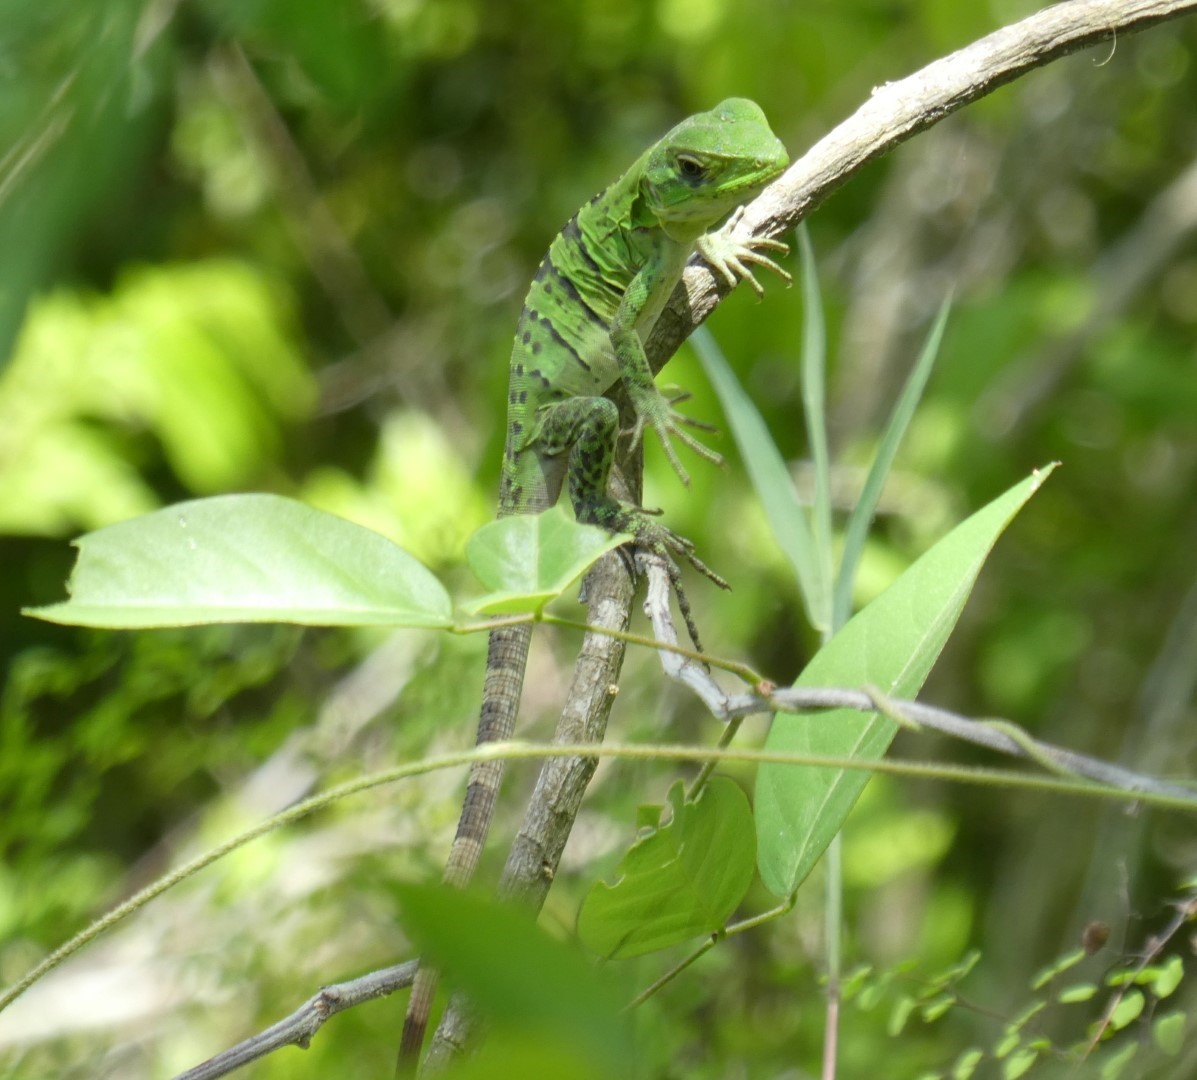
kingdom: Animalia
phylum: Chordata
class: Squamata
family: Iguanidae
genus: Ctenosaura
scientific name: Ctenosaura similis
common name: Black spiny-tailed iguana
